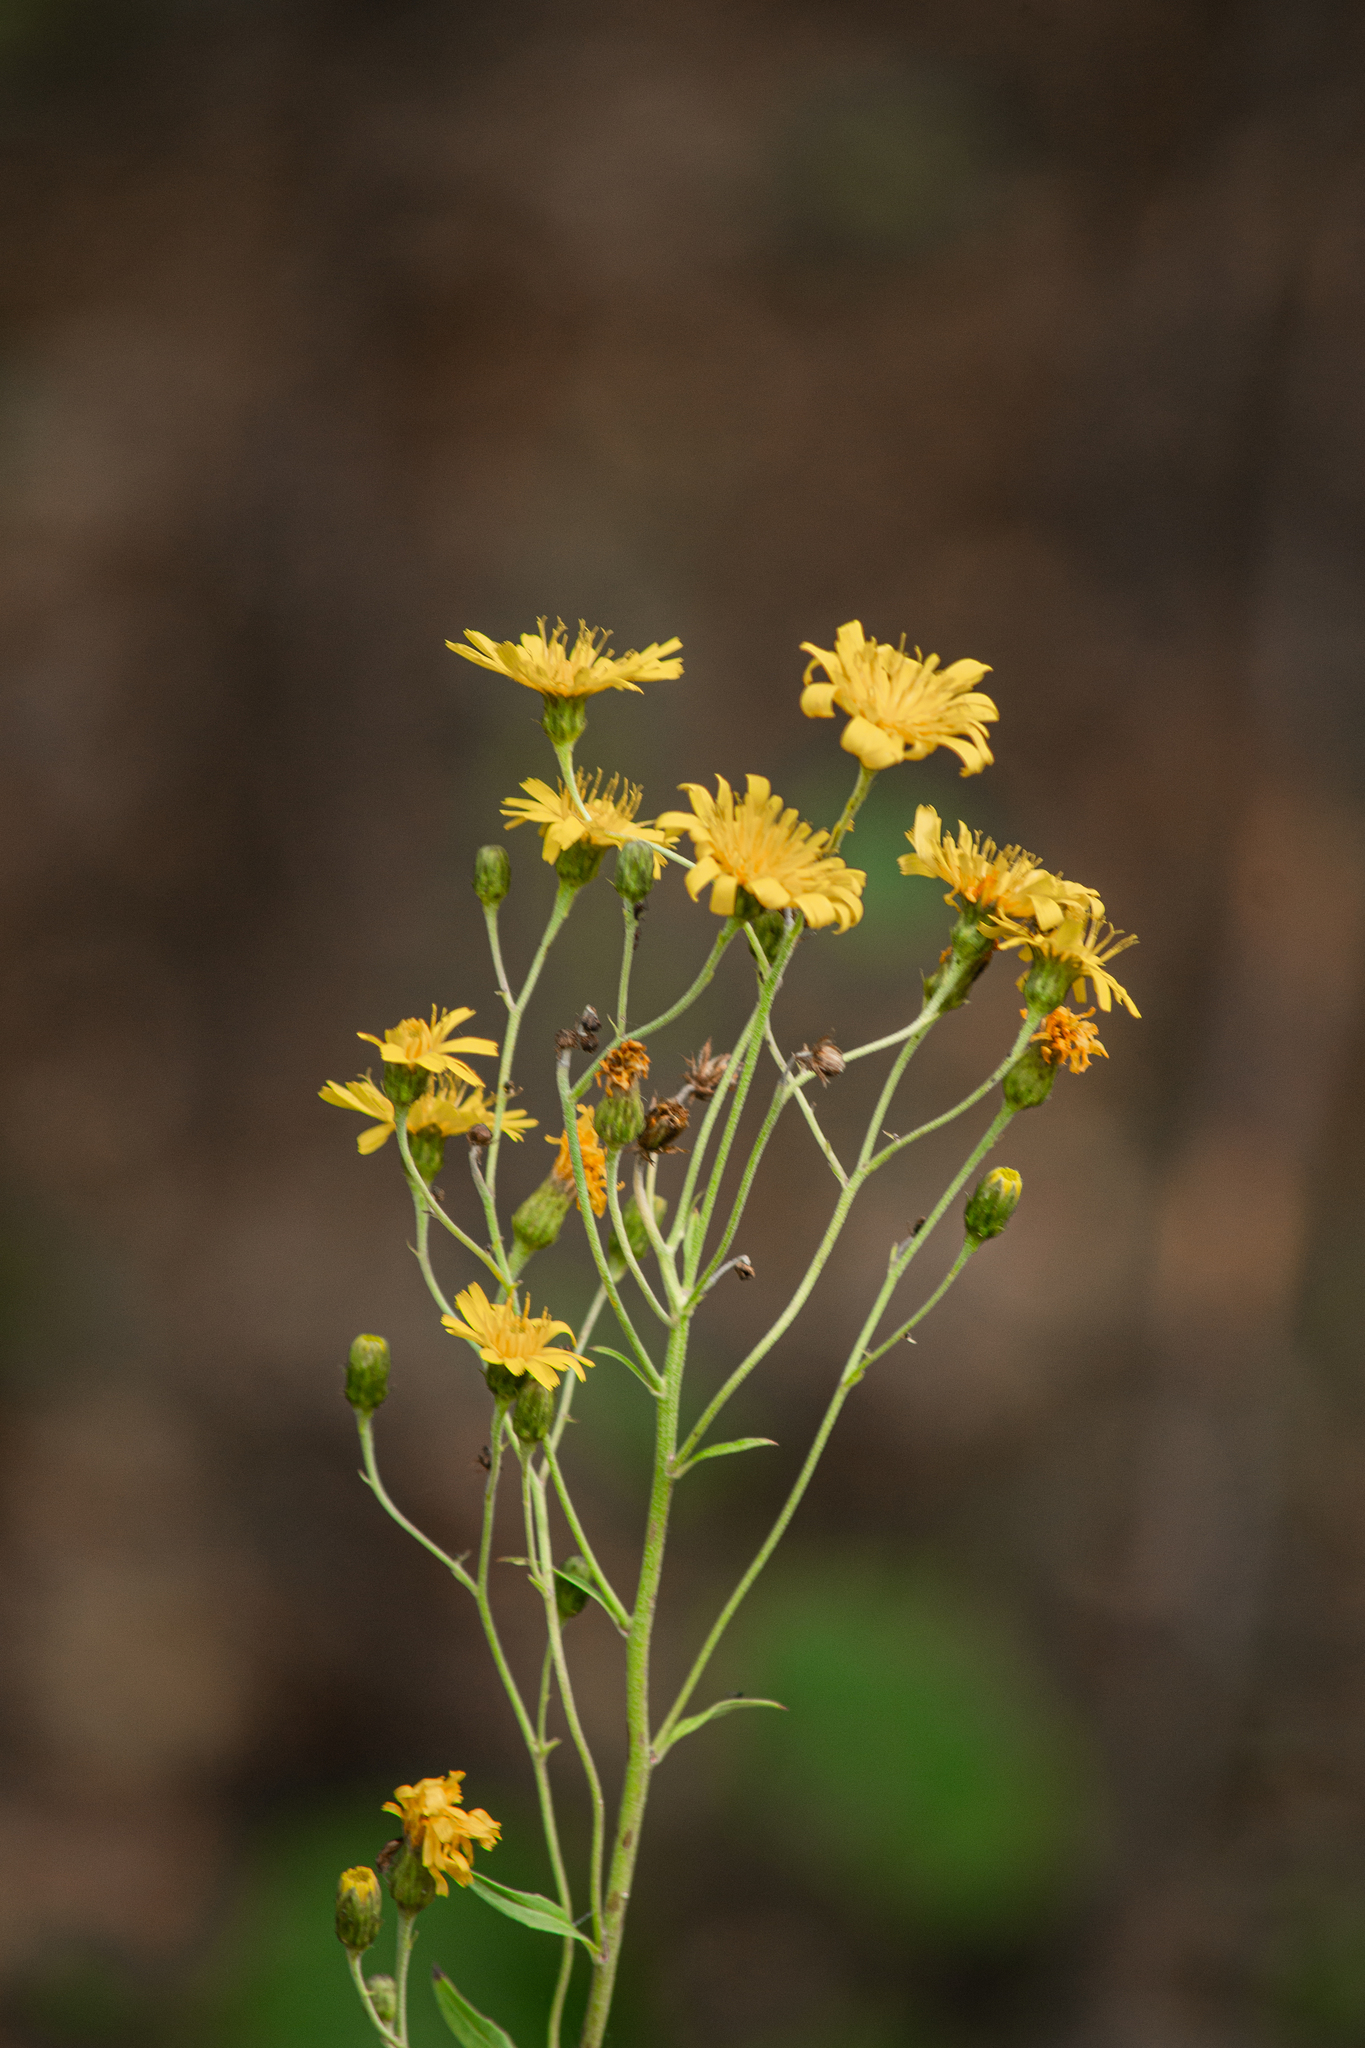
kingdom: Plantae
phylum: Tracheophyta
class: Magnoliopsida
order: Asterales
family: Asteraceae
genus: Hieracium
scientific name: Hieracium umbellatum
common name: Northern hawkweed
